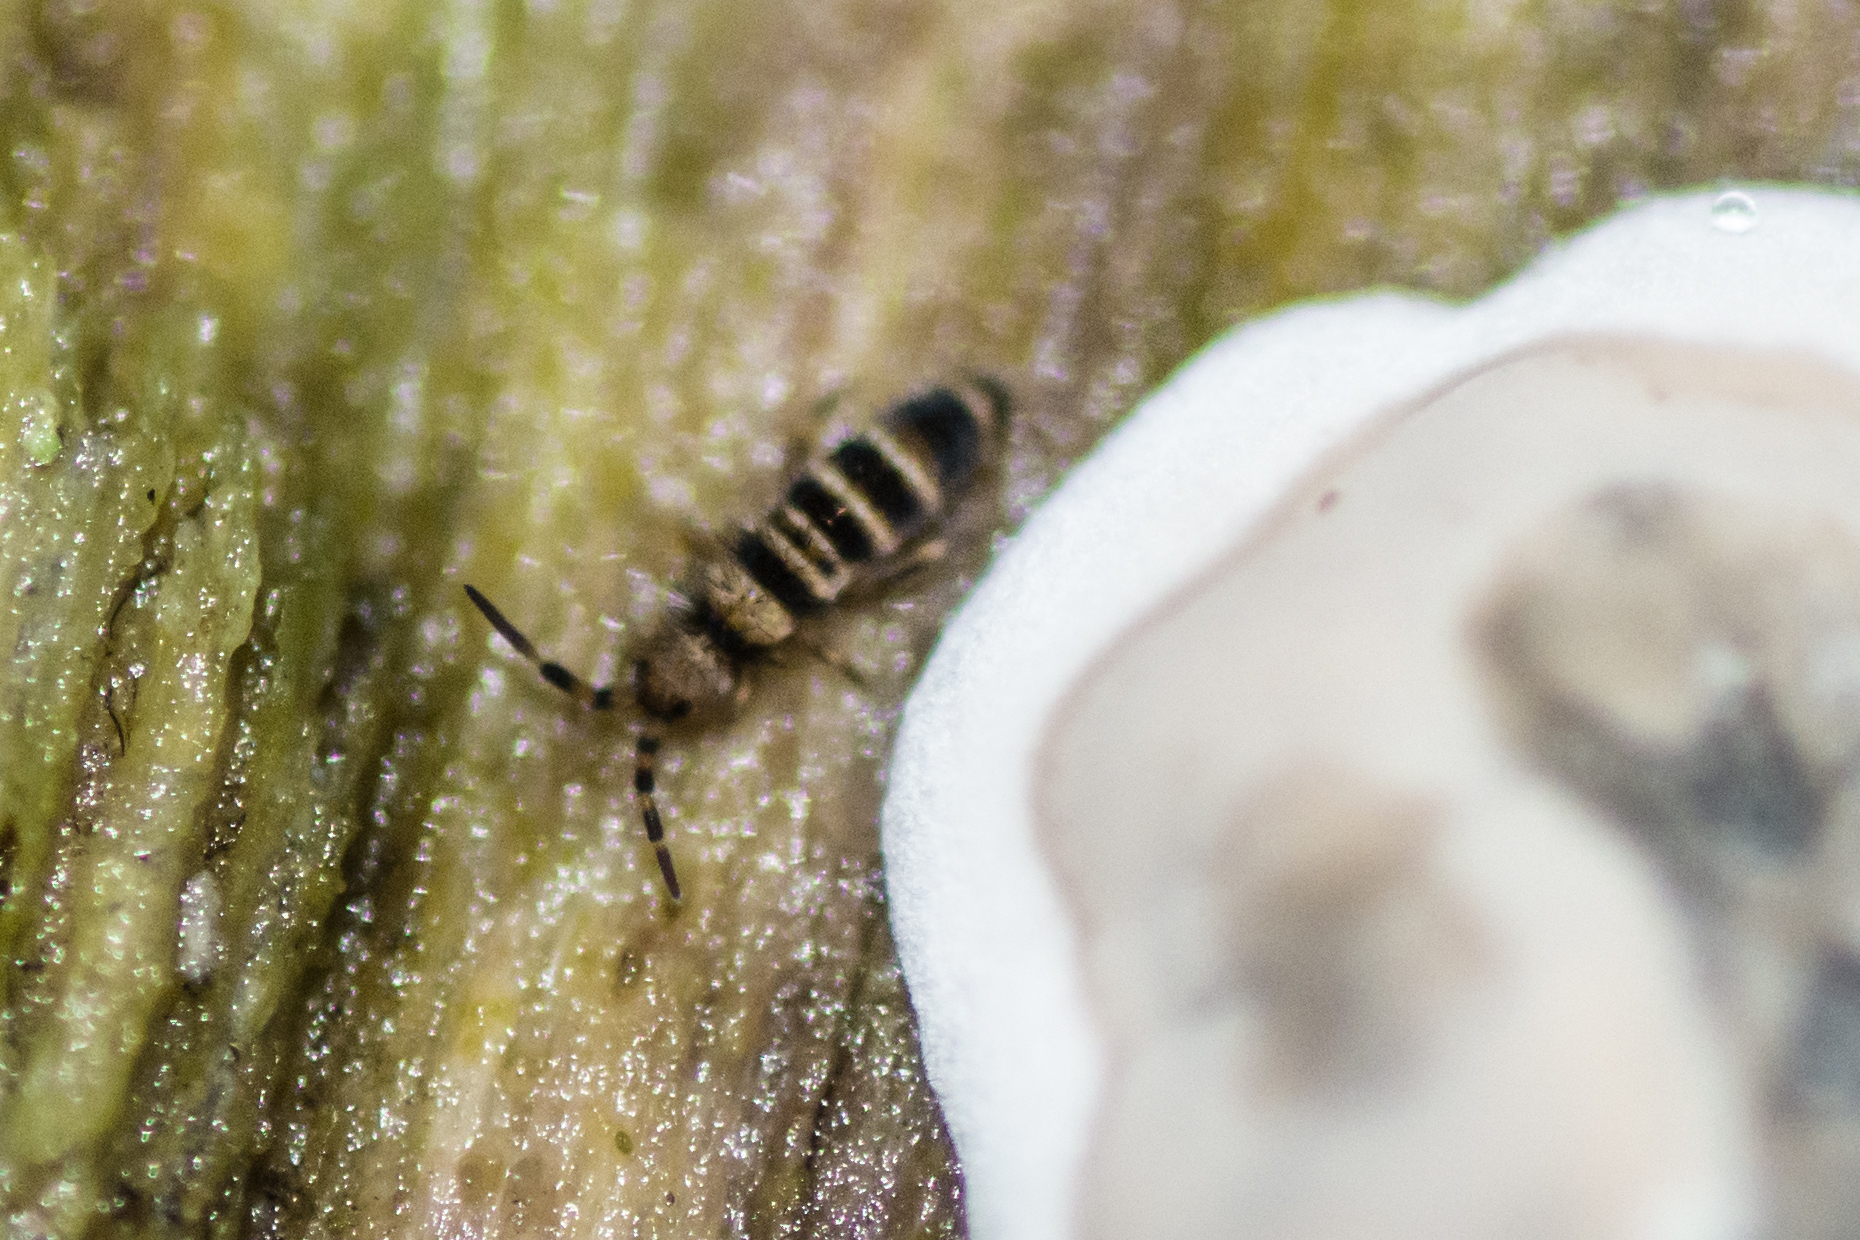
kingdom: Animalia
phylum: Arthropoda
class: Collembola
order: Entomobryomorpha
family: Orchesellidae
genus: Orchesella
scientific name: Orchesella hexfasciata
